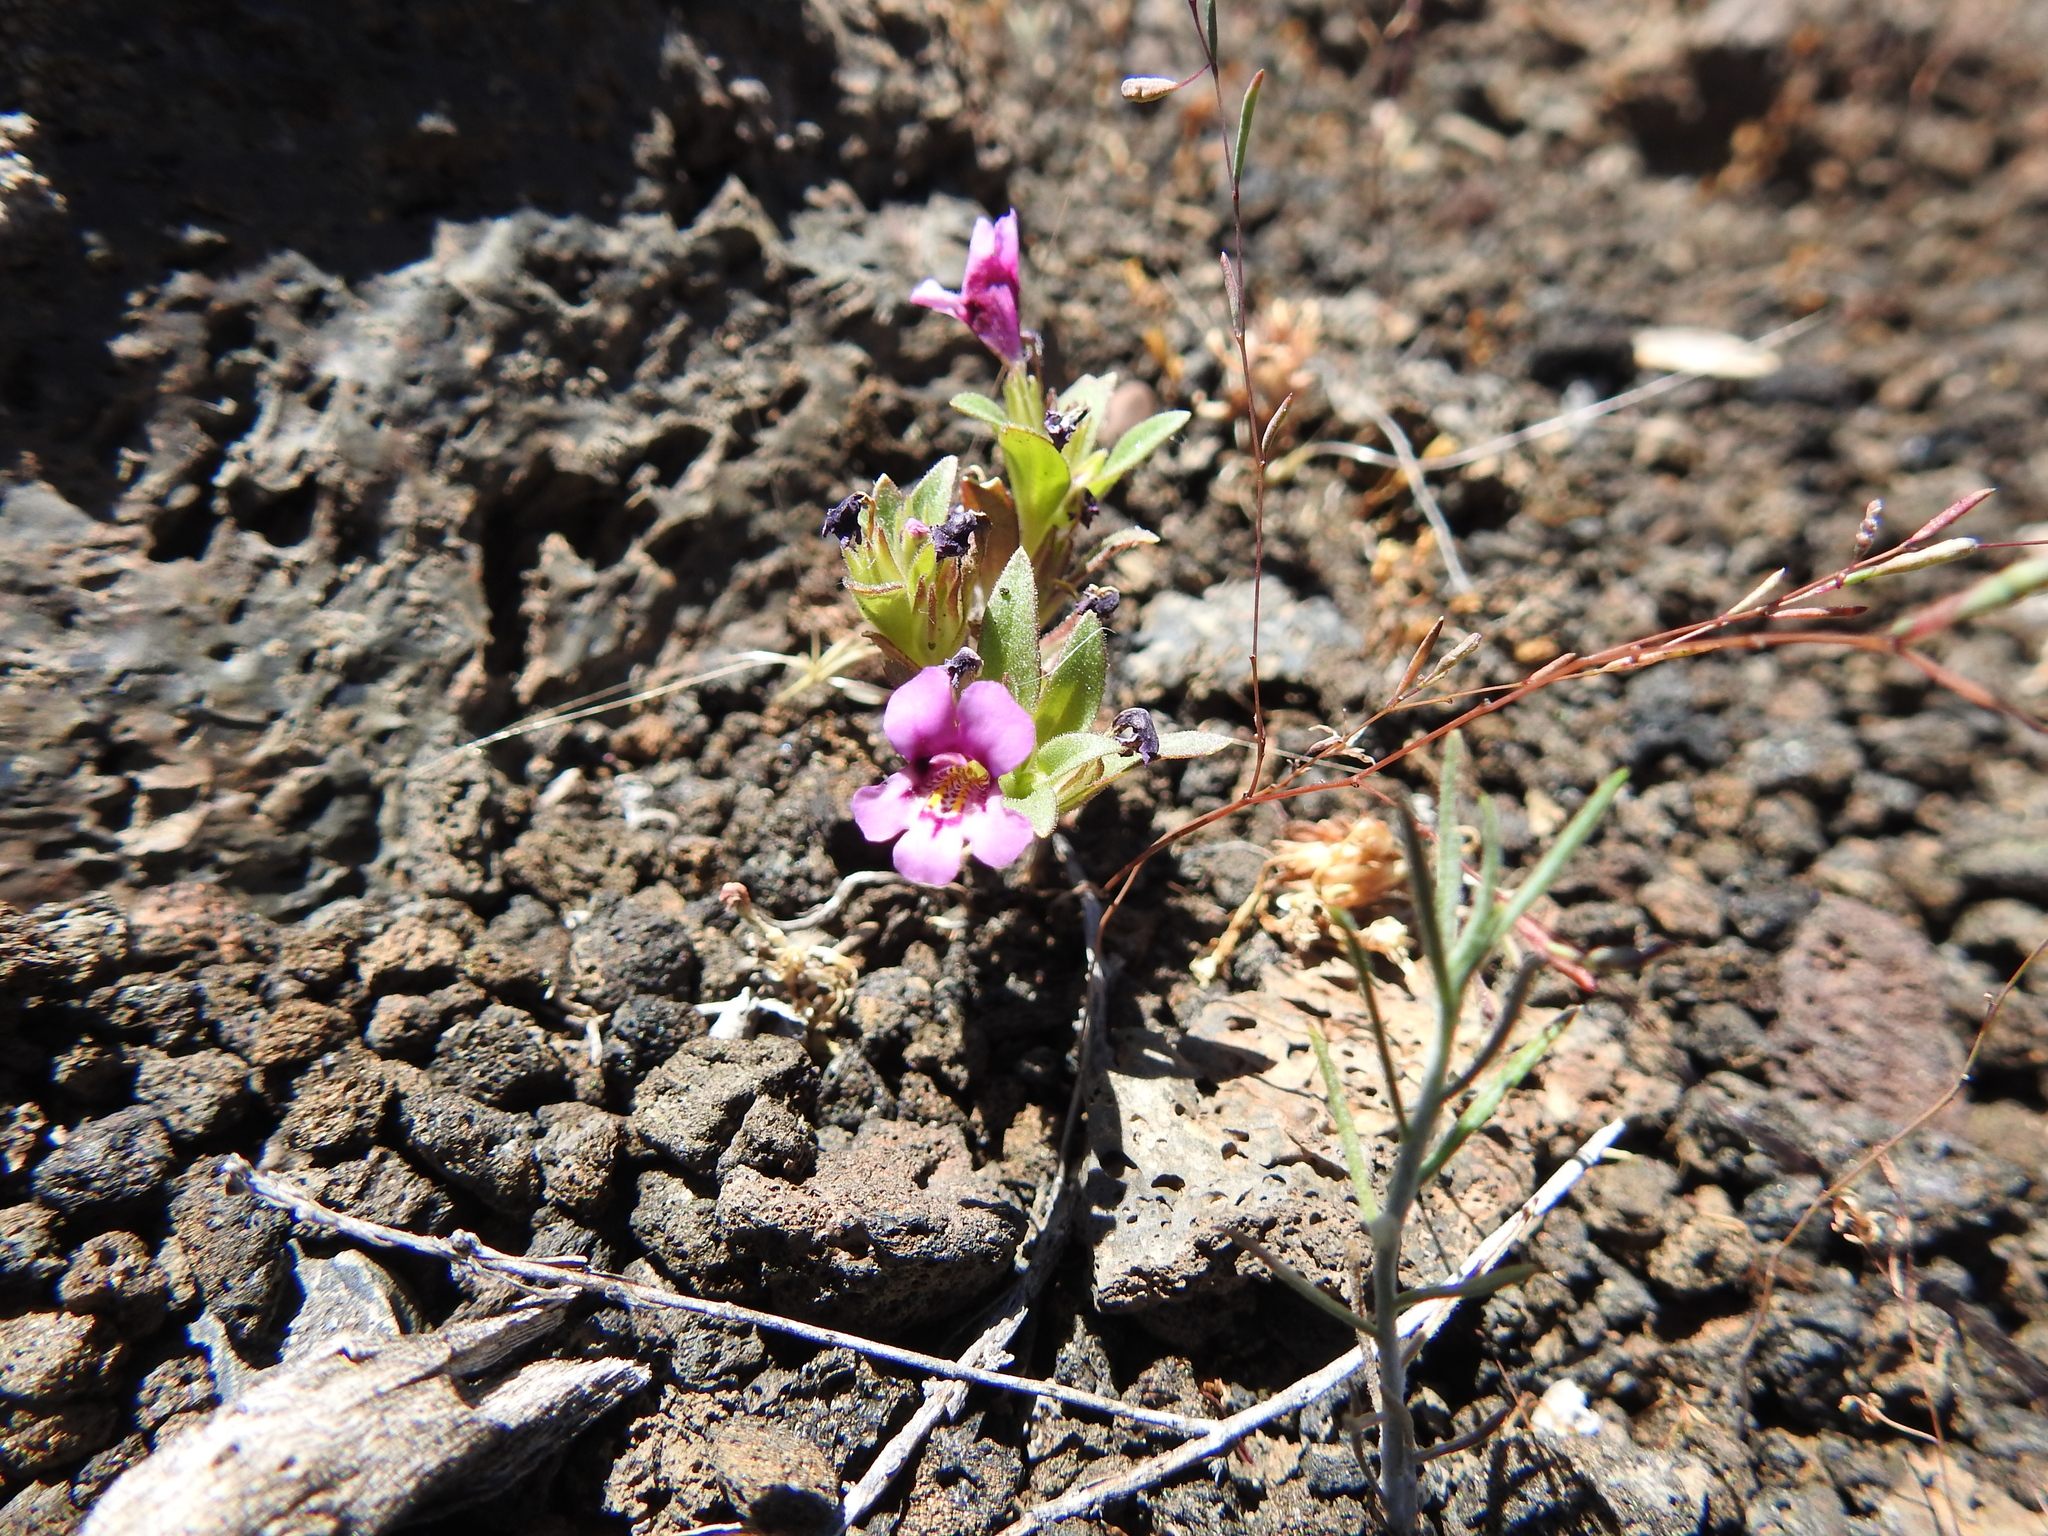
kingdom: Plantae
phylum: Tracheophyta
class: Magnoliopsida
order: Lamiales
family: Phrymaceae
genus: Diplacus
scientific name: Diplacus nanus
